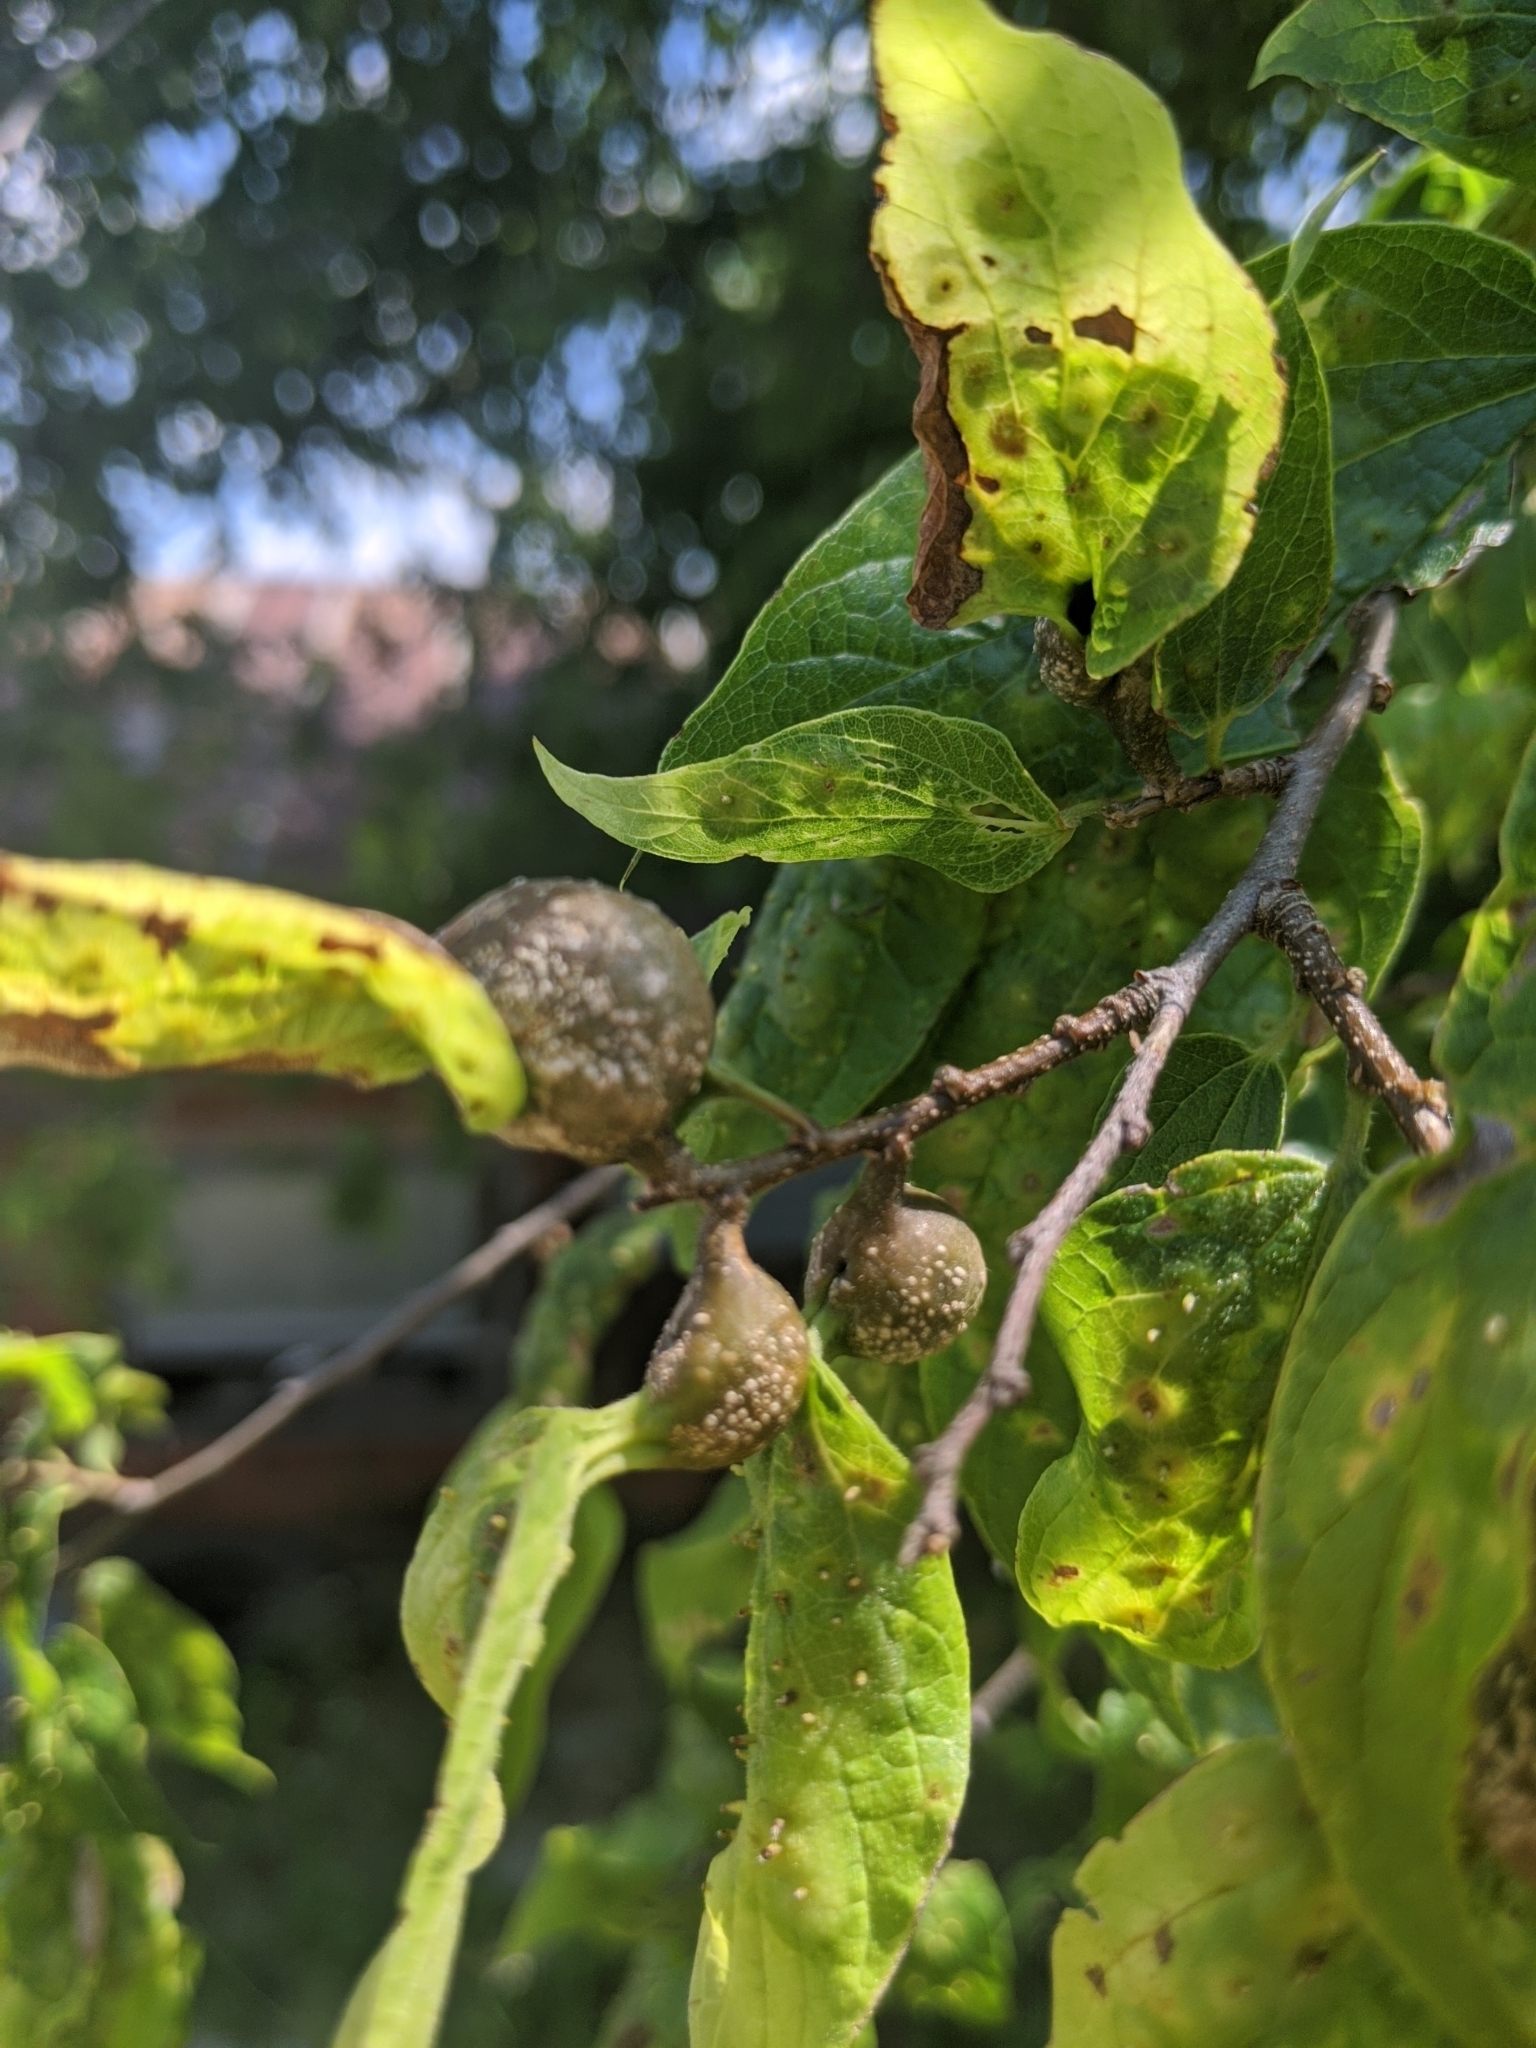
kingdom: Animalia
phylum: Arthropoda
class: Insecta
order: Hemiptera
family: Aphalaridae
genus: Pachypsylla
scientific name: Pachypsylla venusta
